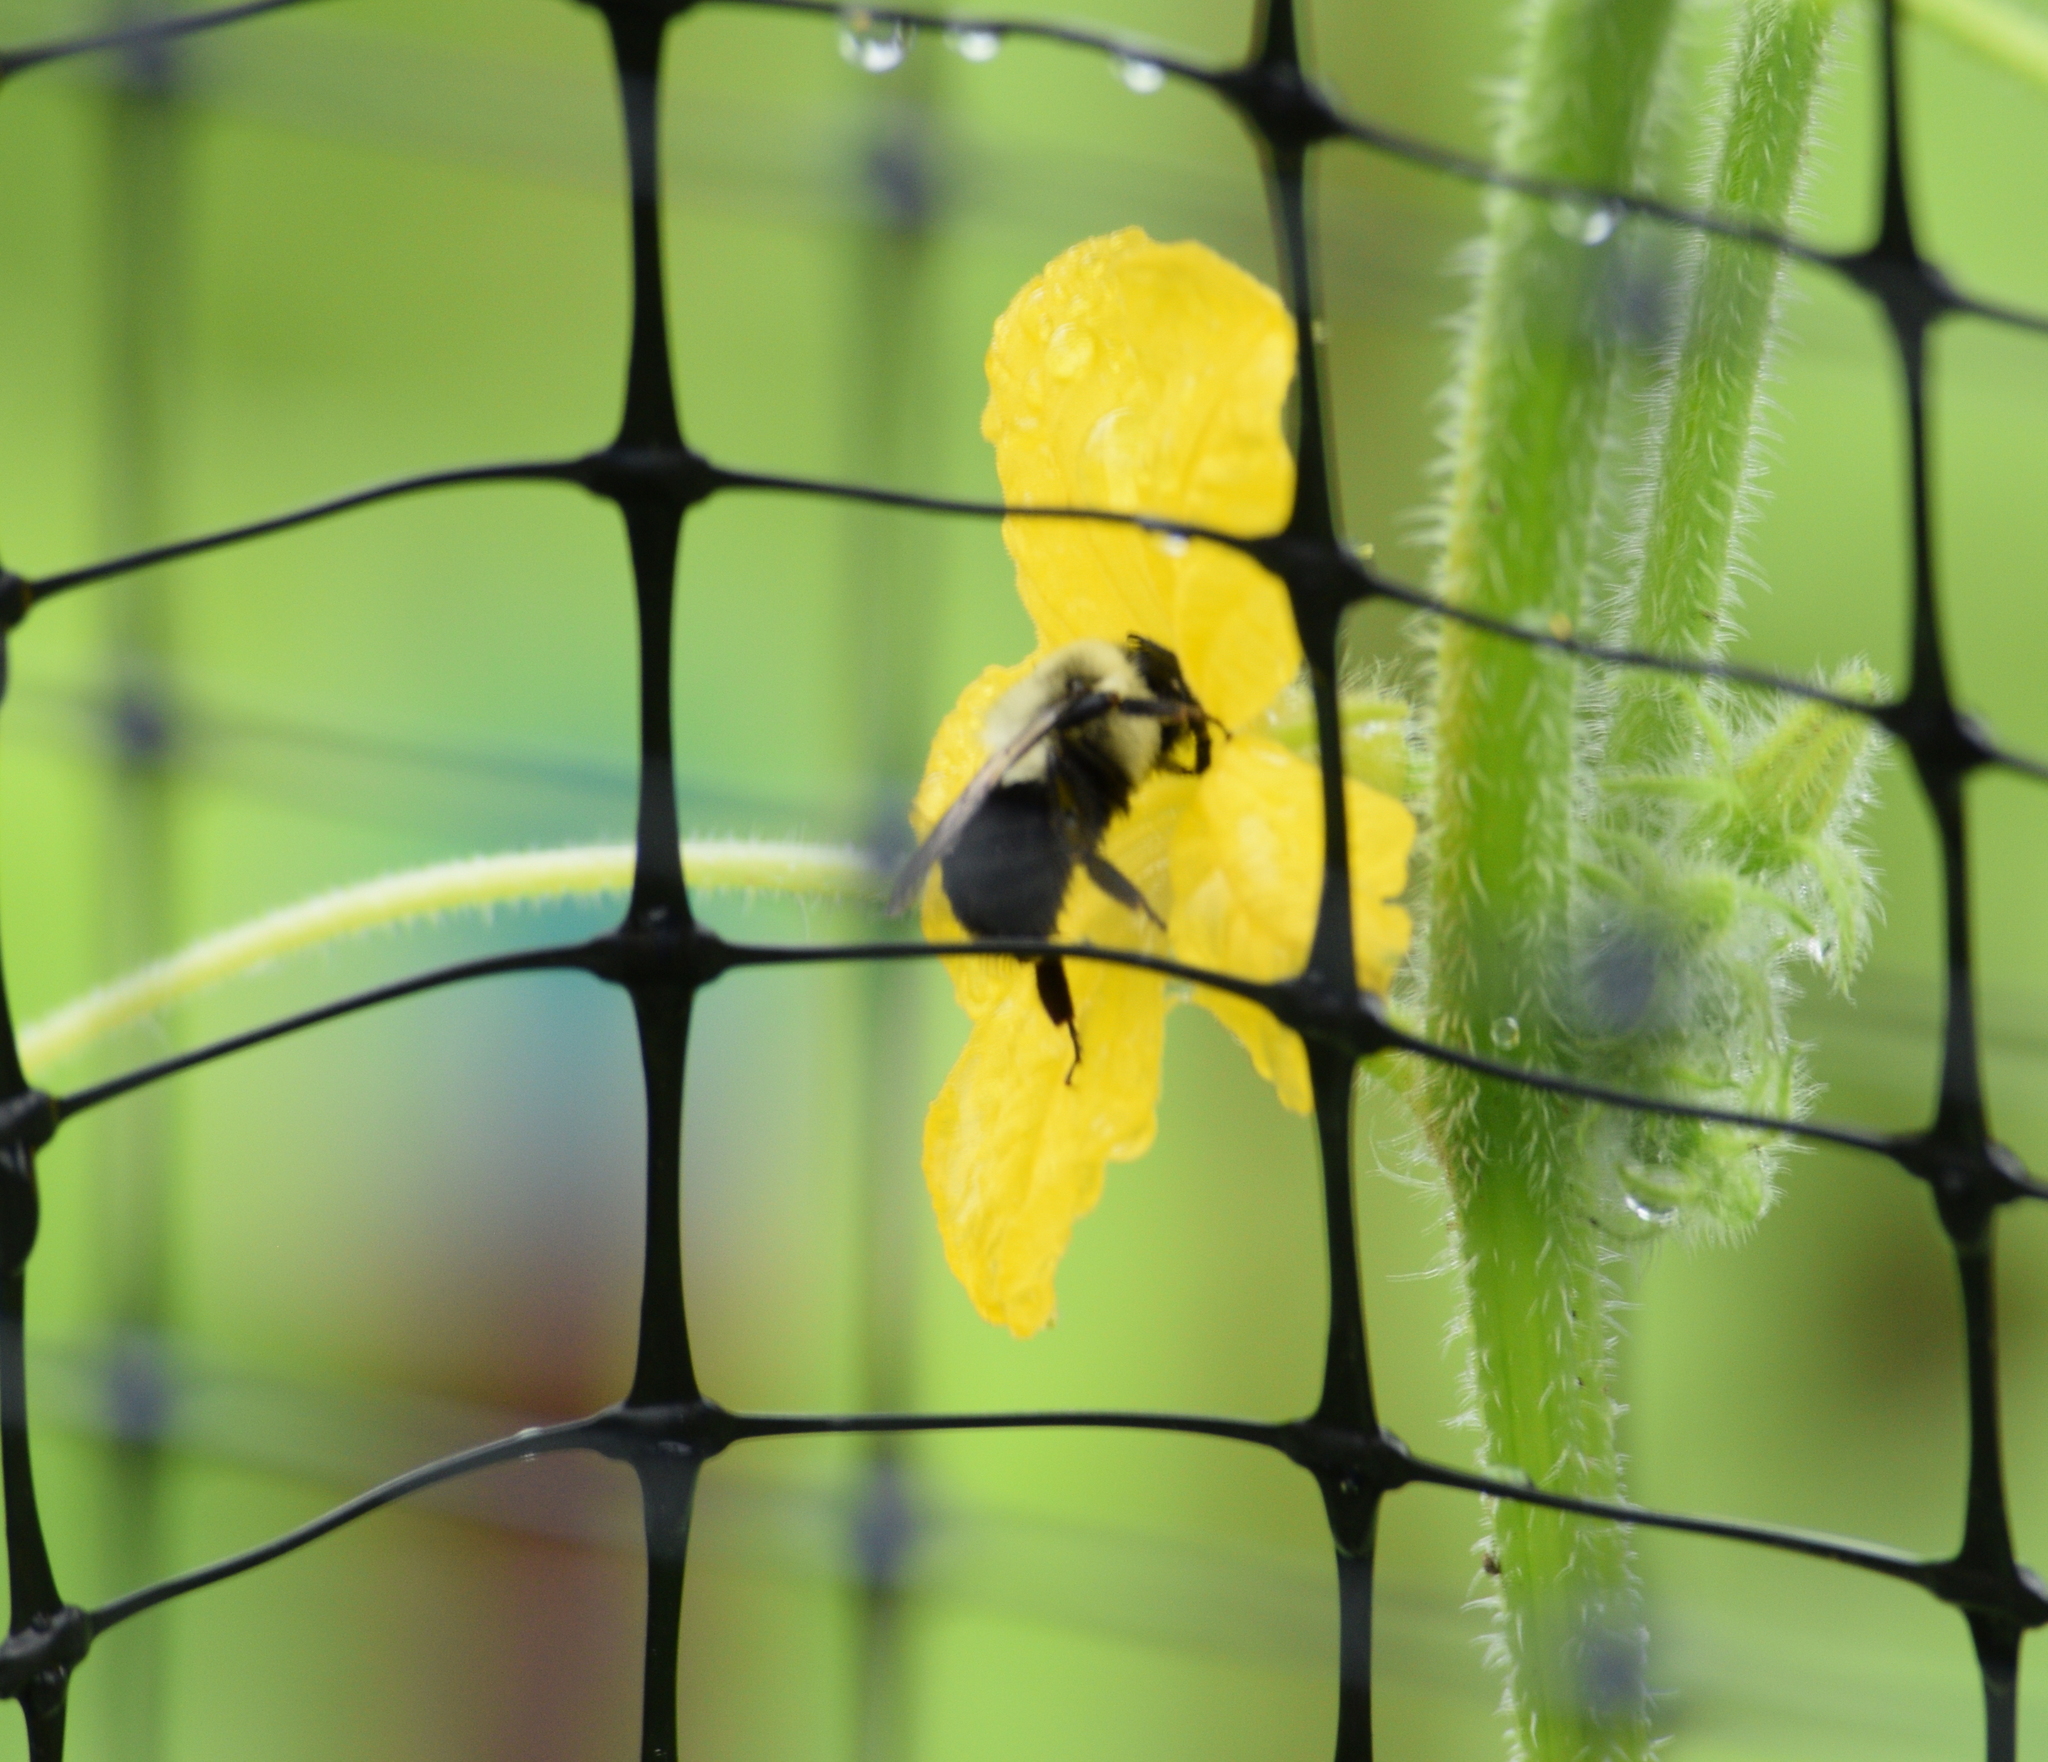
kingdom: Animalia
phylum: Arthropoda
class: Insecta
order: Hymenoptera
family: Apidae
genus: Bombus
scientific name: Bombus impatiens
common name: Common eastern bumble bee
